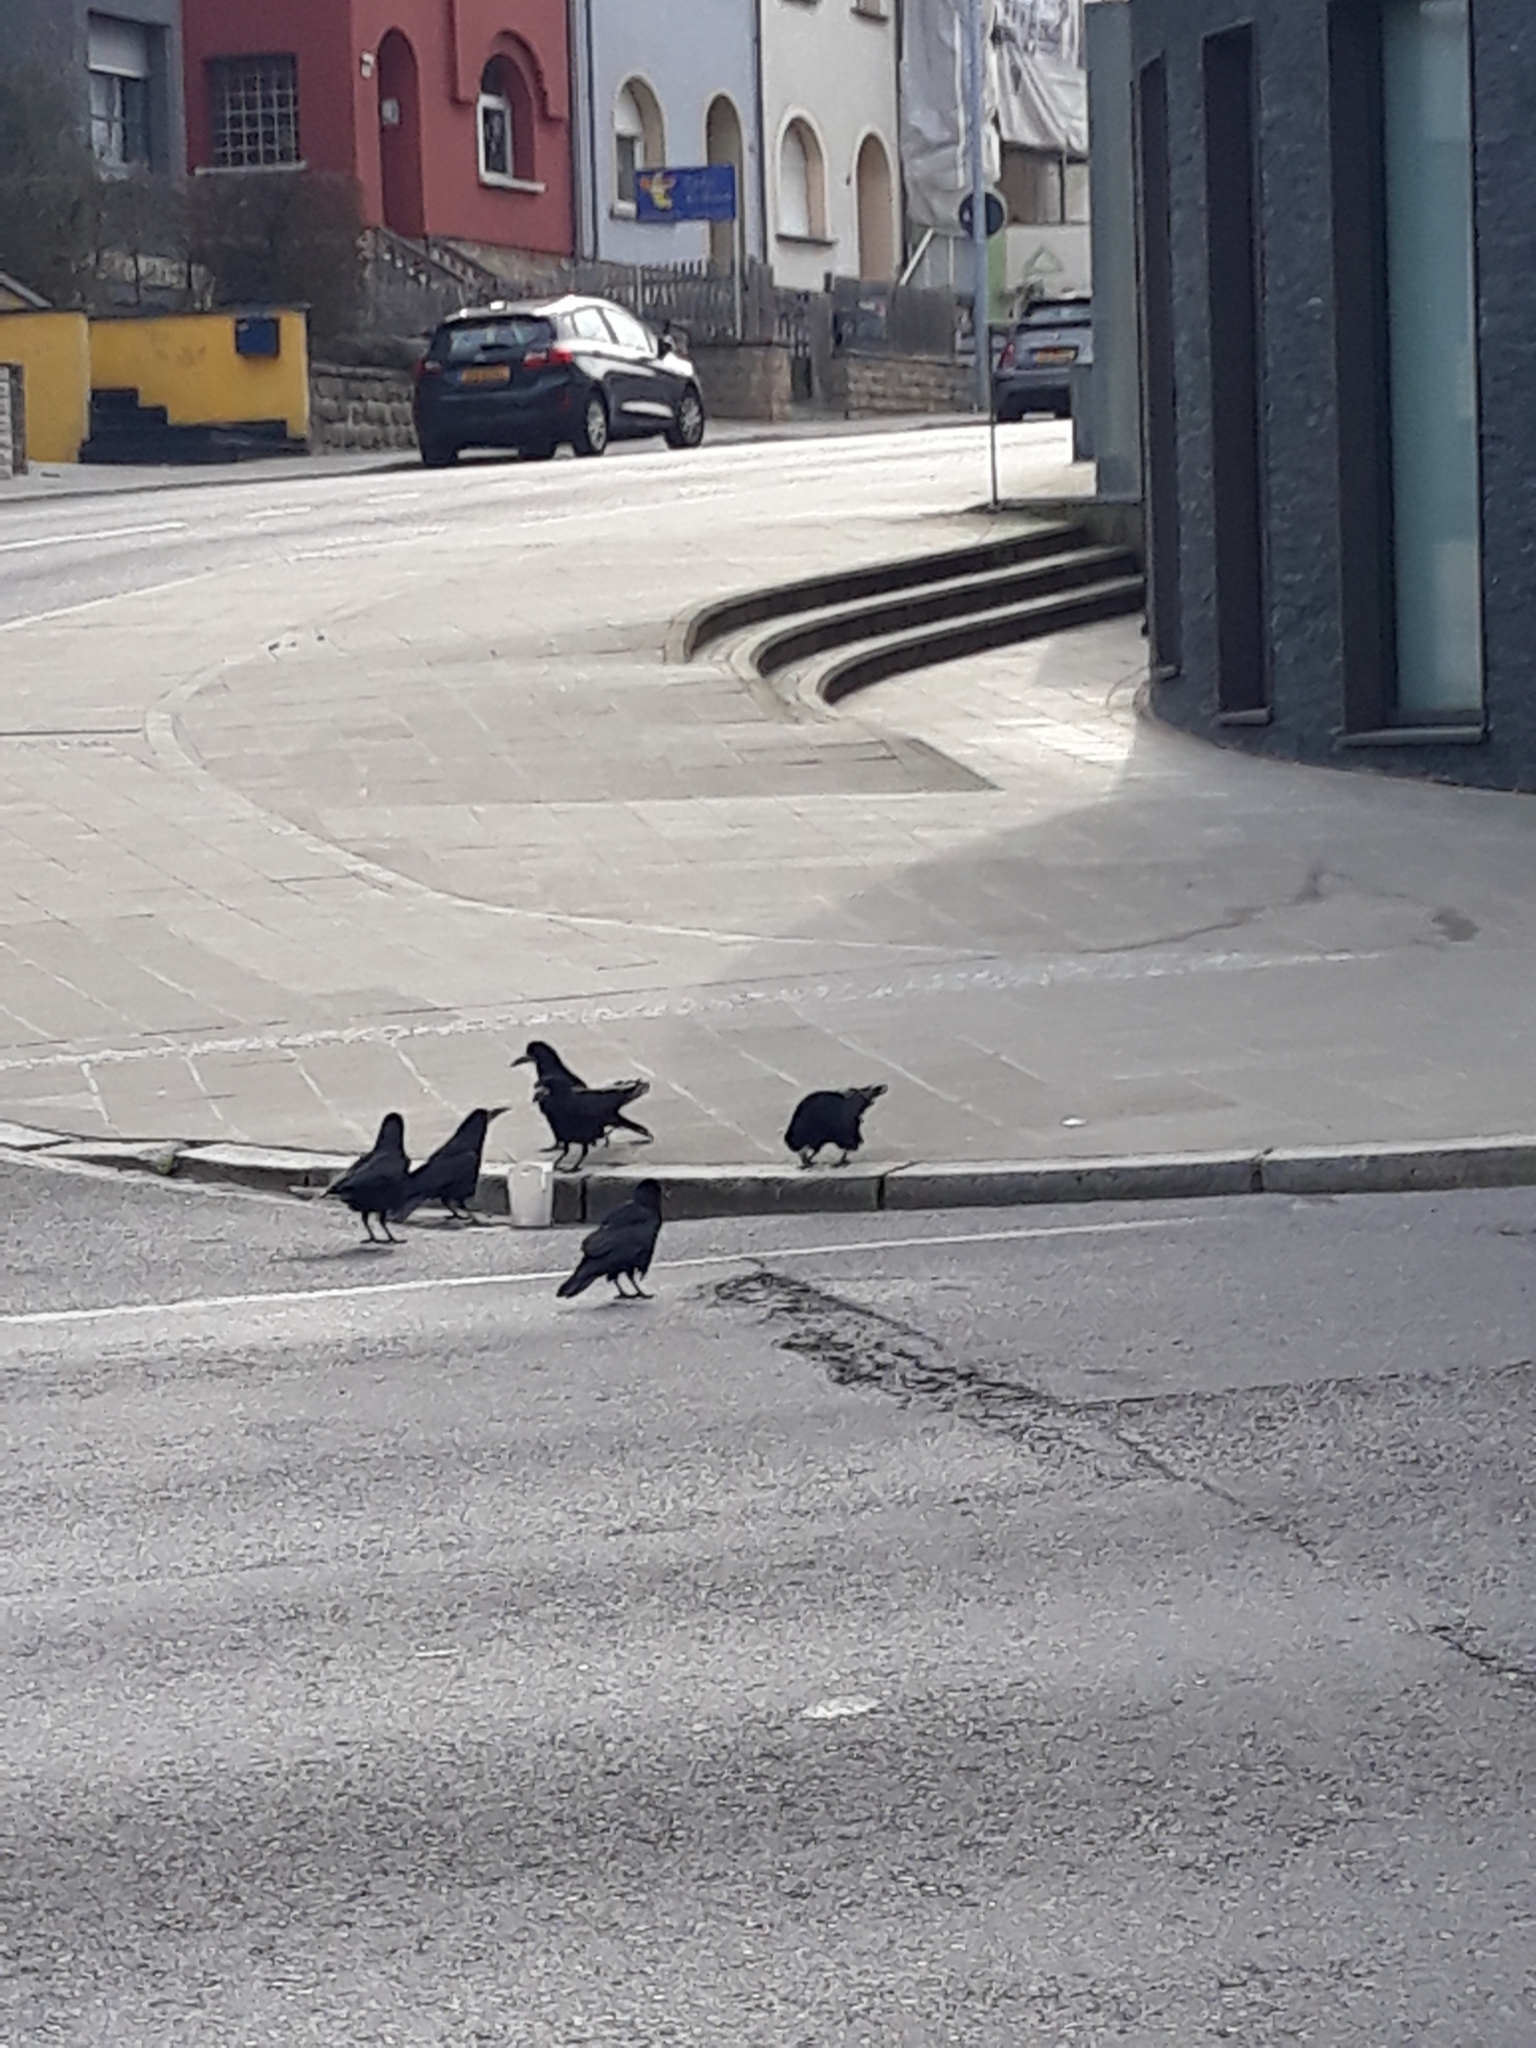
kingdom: Animalia
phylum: Chordata
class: Aves
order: Passeriformes
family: Corvidae
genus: Corvus
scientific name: Corvus frugilegus
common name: Rook
